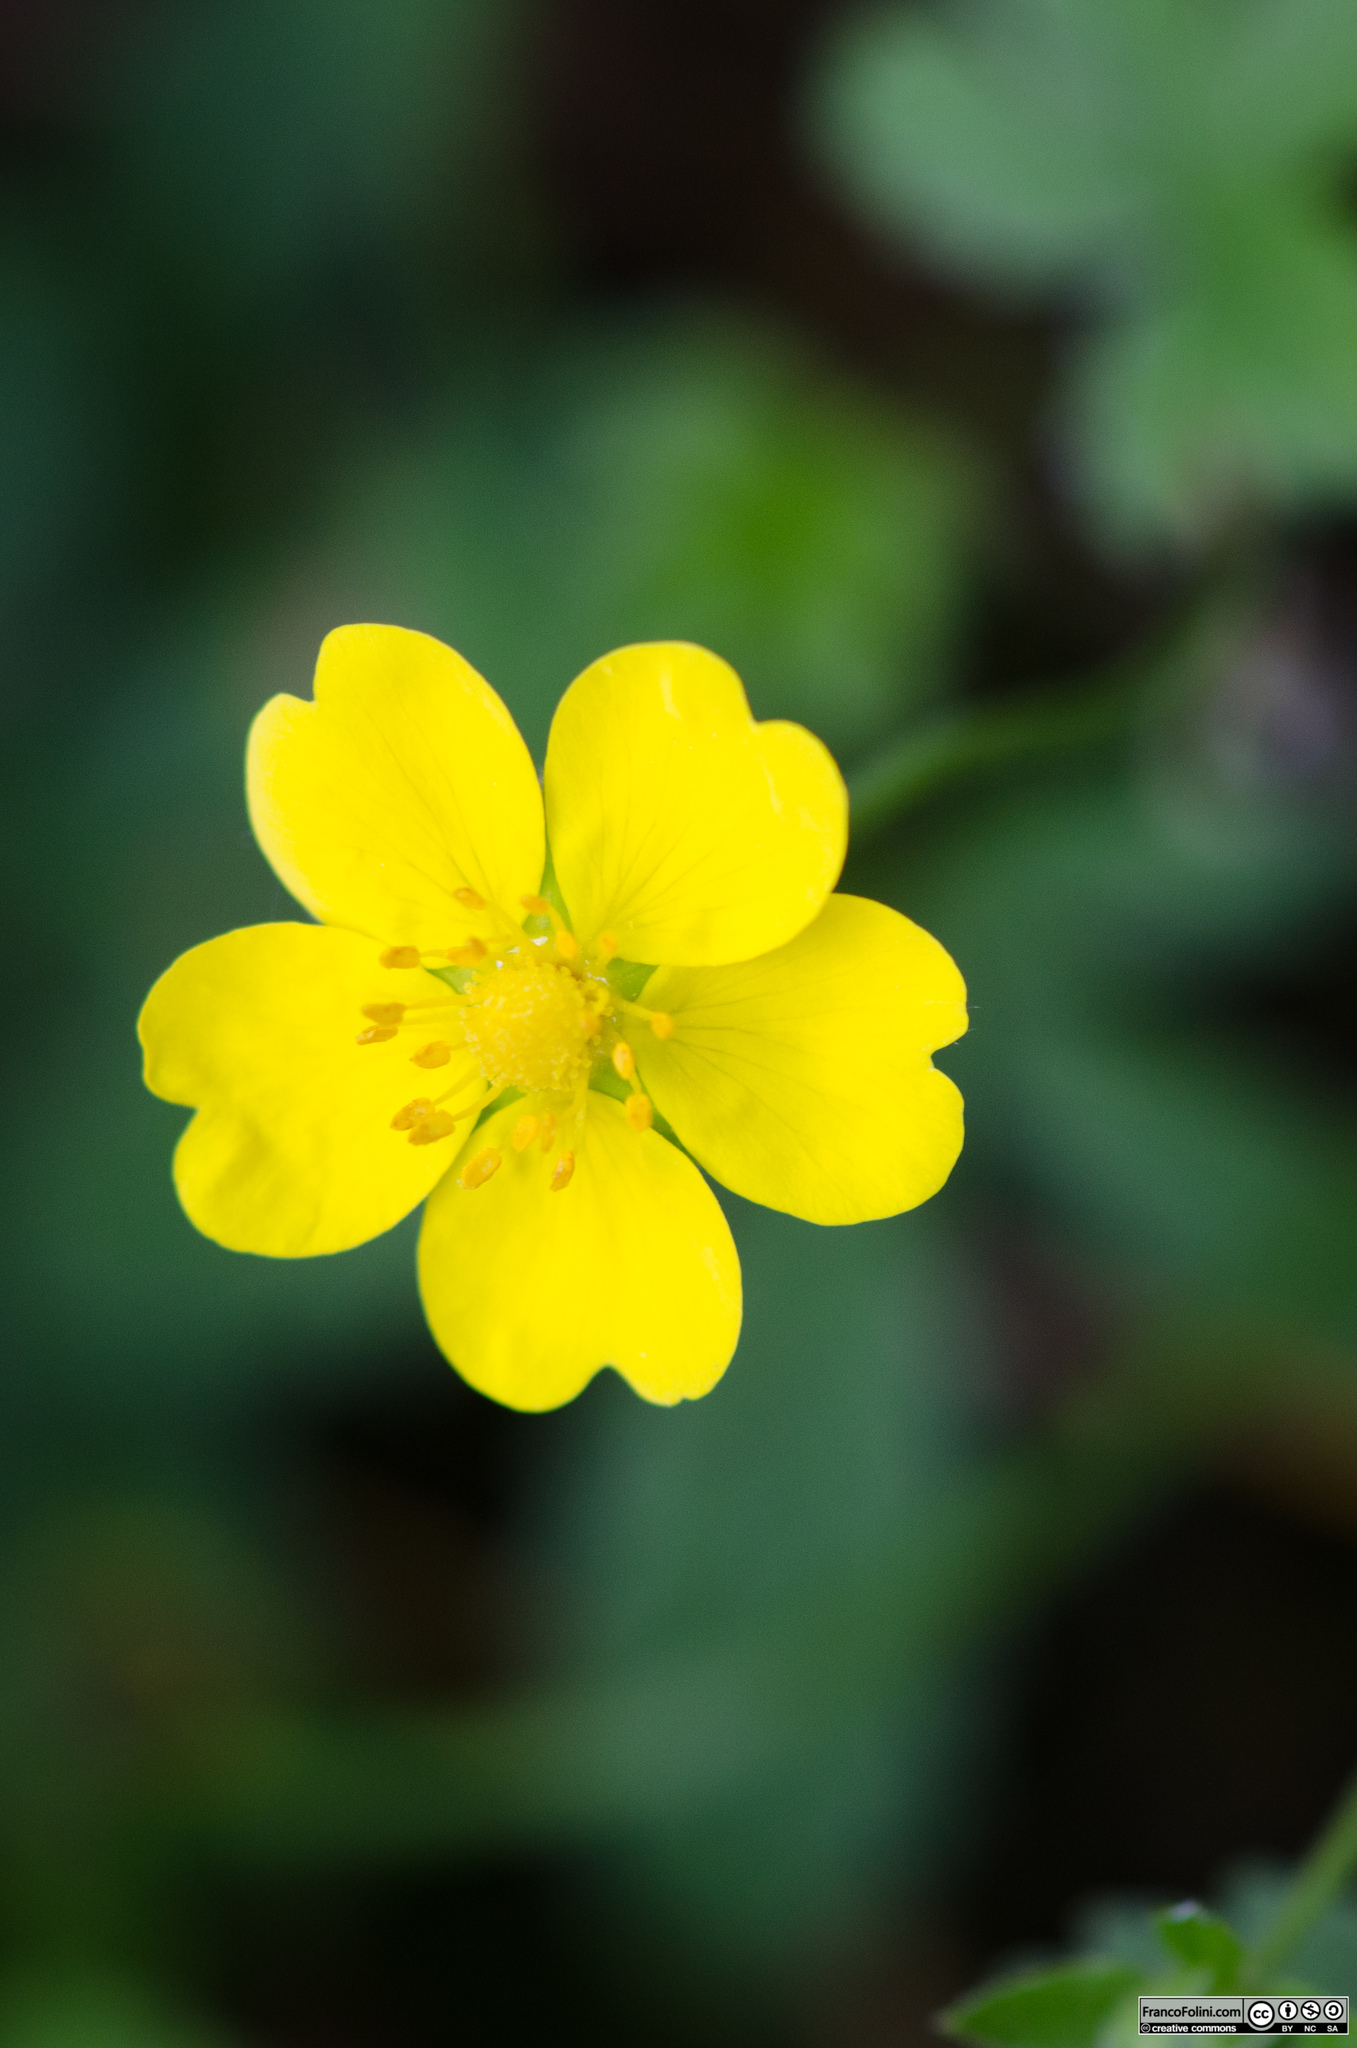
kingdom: Plantae
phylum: Tracheophyta
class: Magnoliopsida
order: Rosales
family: Rosaceae
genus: Potentilla
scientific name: Potentilla reptans
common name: Creeping cinquefoil
